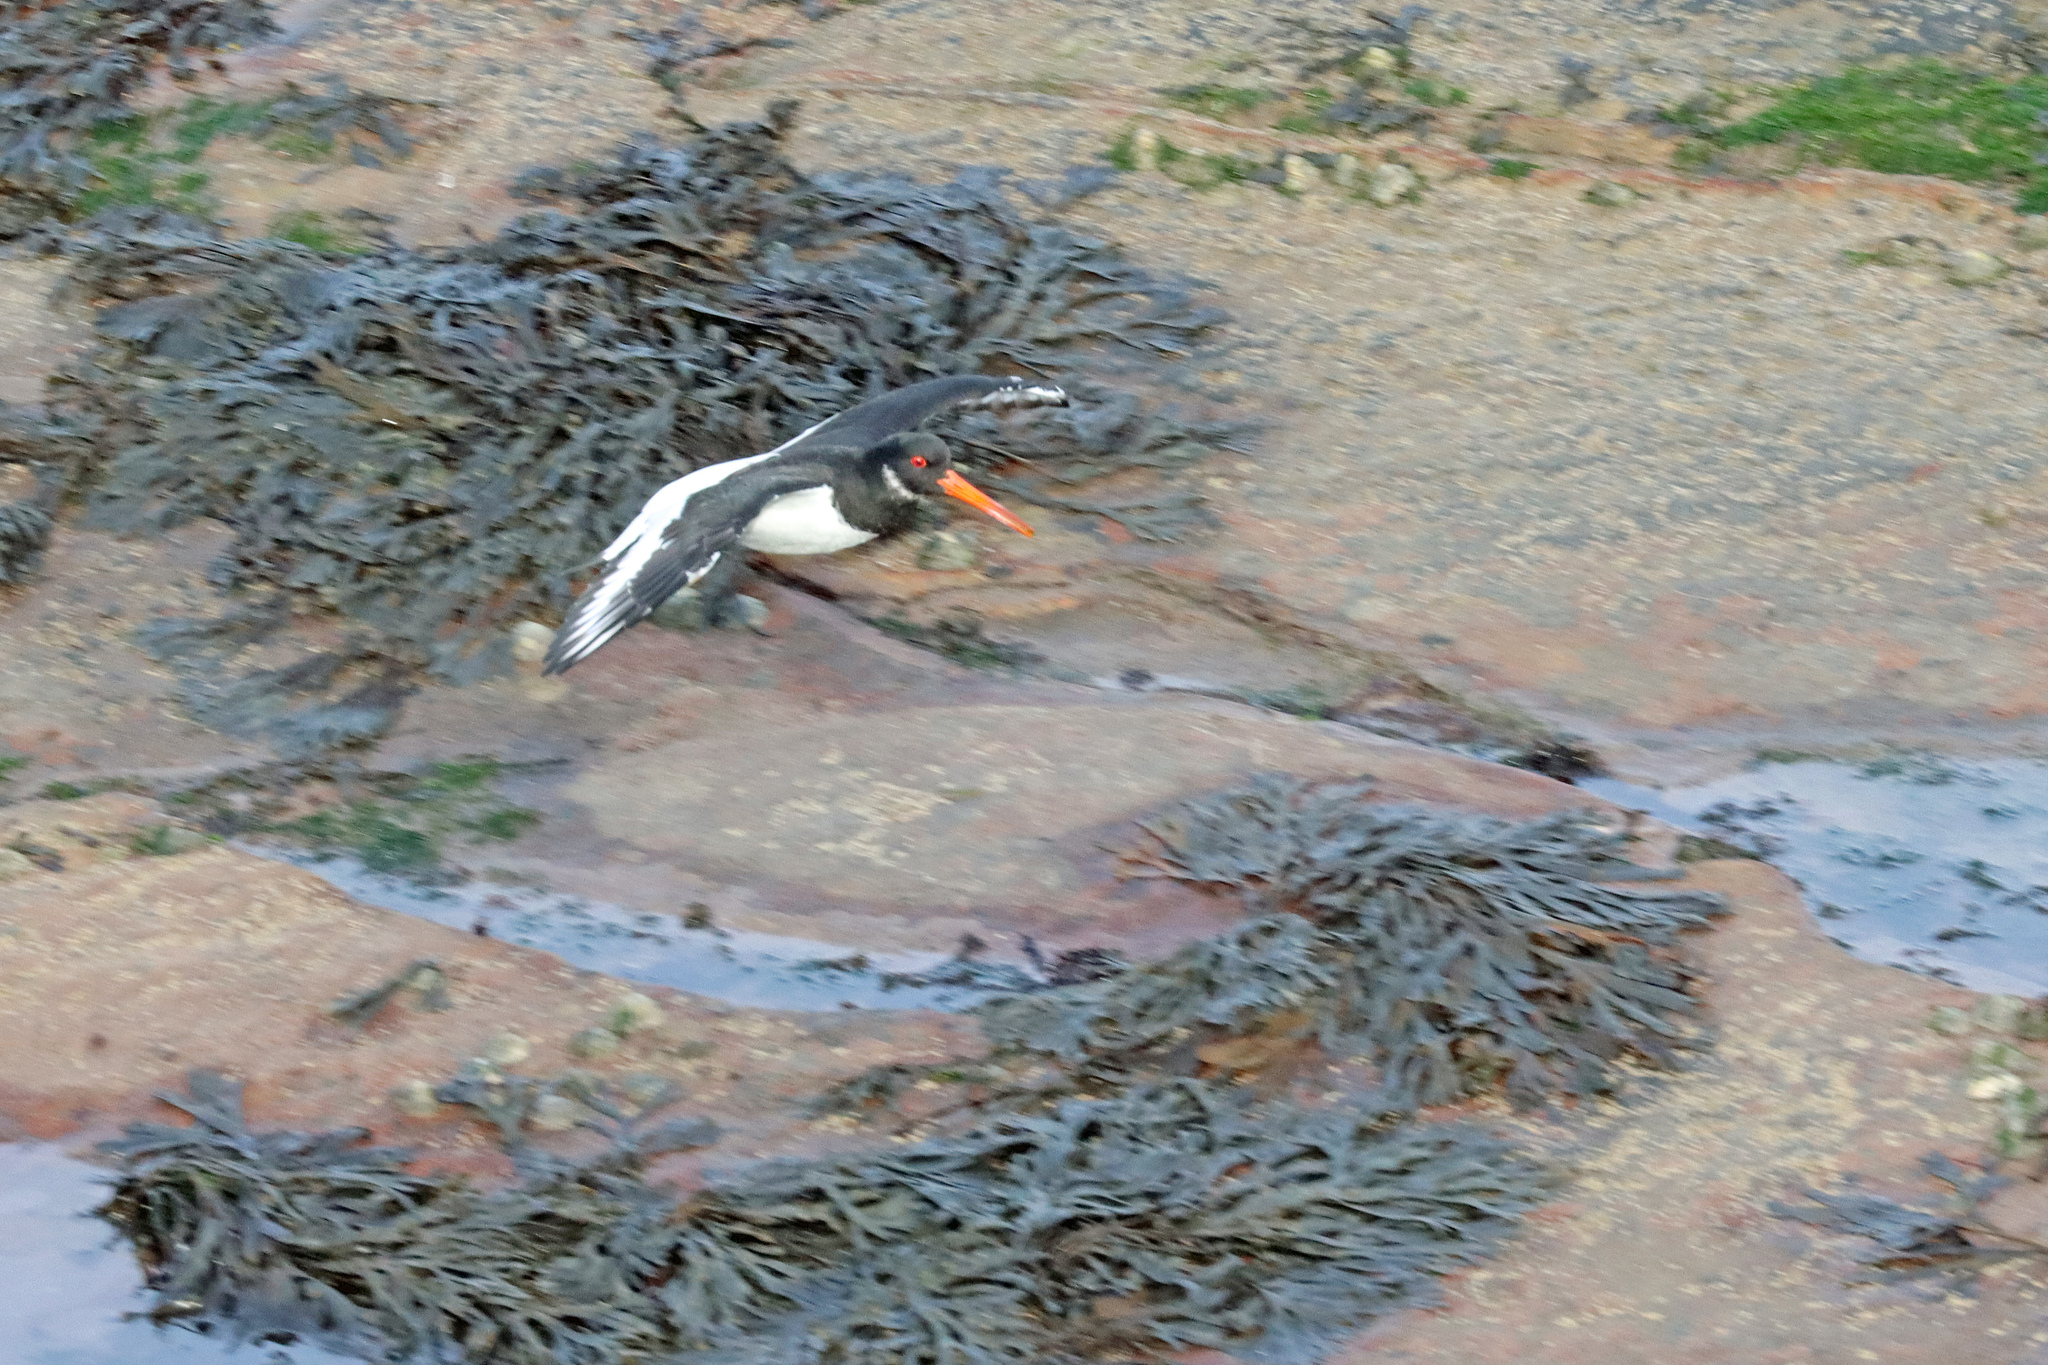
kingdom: Animalia
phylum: Chordata
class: Aves
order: Charadriiformes
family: Haematopodidae
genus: Haematopus
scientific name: Haematopus ostralegus
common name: Eurasian oystercatcher
